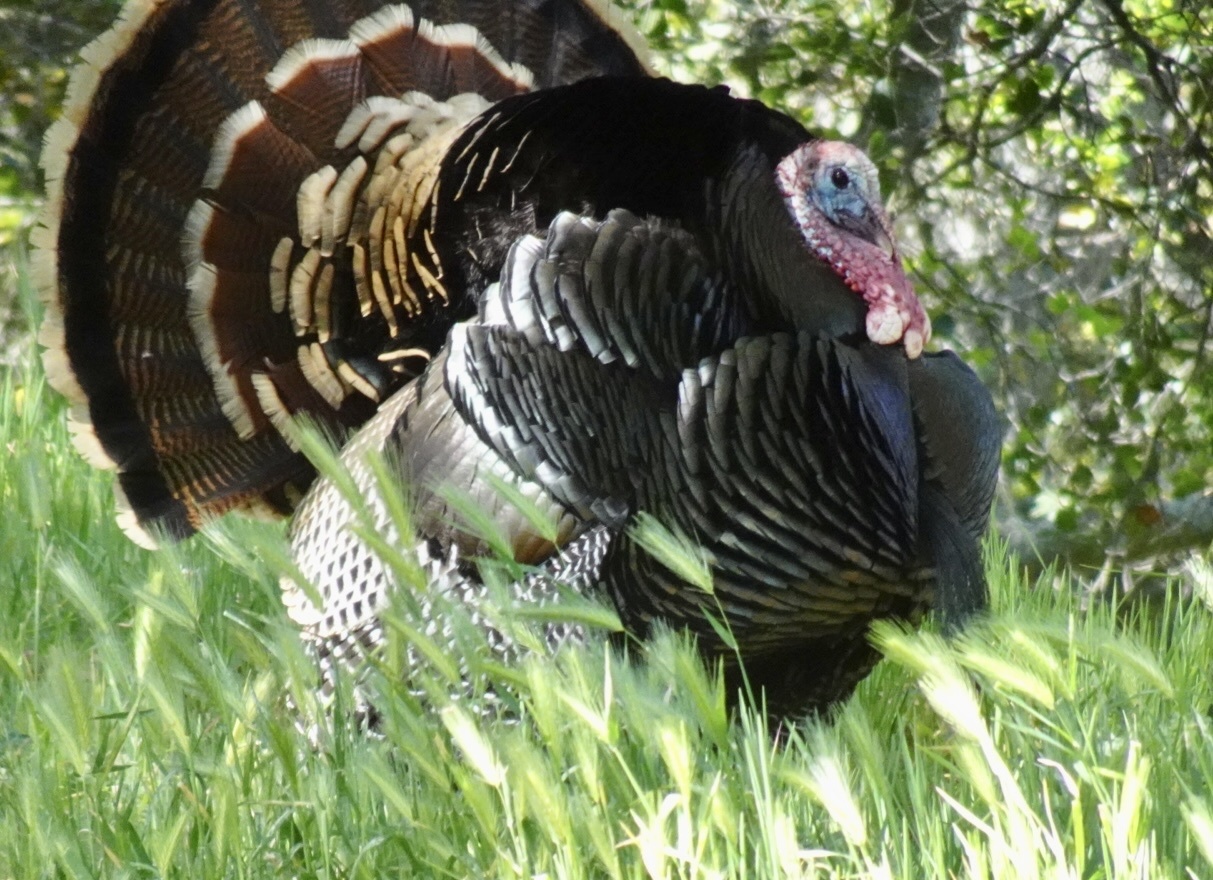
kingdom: Animalia
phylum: Chordata
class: Aves
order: Galliformes
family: Phasianidae
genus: Meleagris
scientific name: Meleagris gallopavo
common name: Wild turkey
